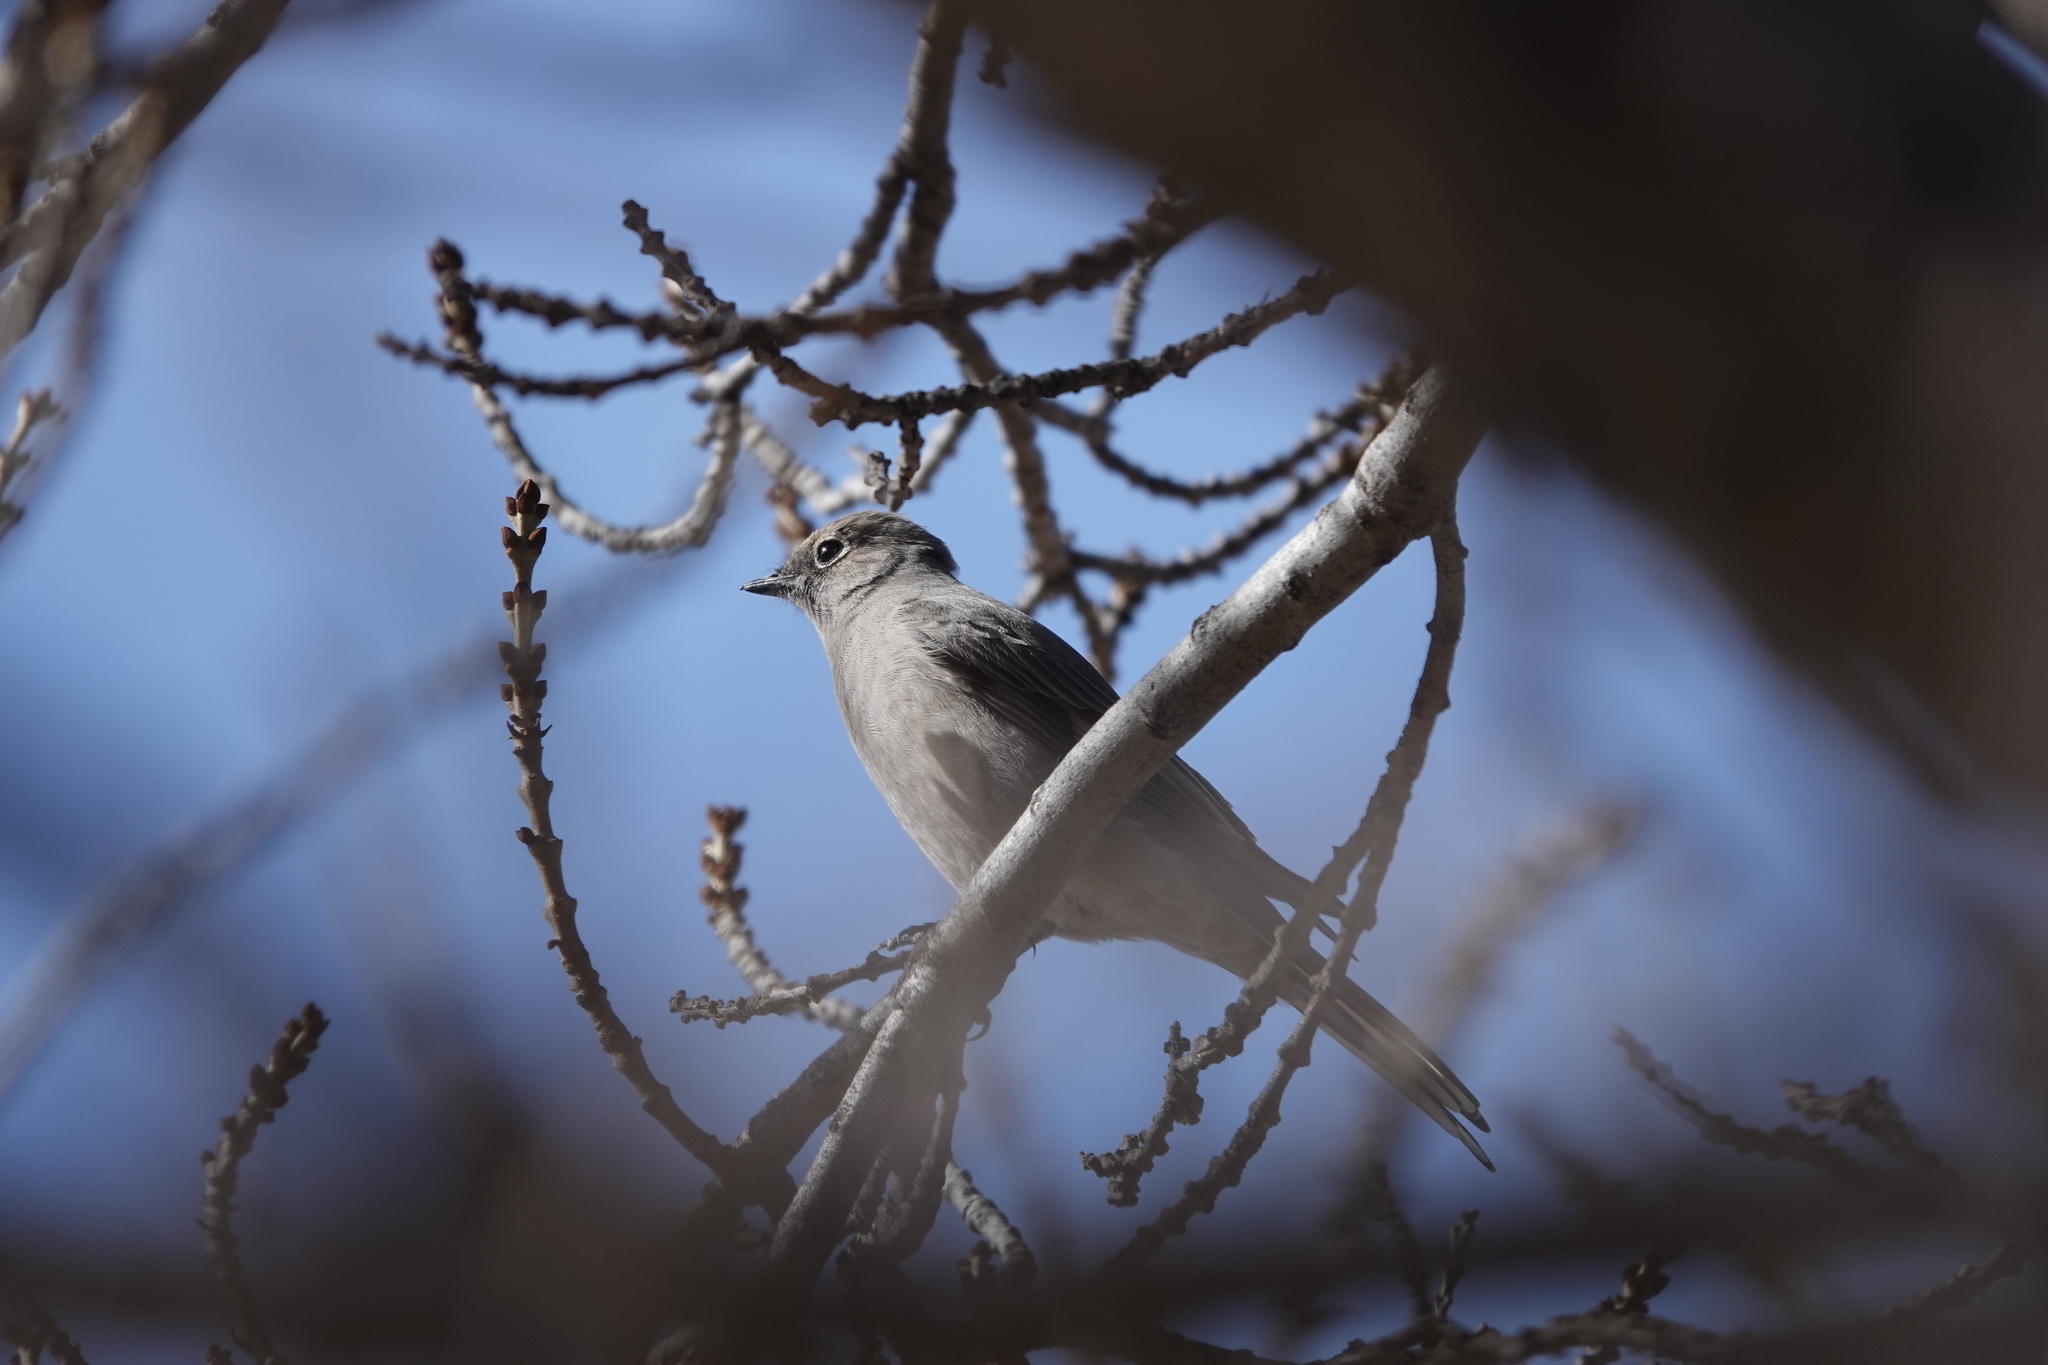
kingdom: Animalia
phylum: Chordata
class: Aves
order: Passeriformes
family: Turdidae
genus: Myadestes
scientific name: Myadestes townsendi
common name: Townsend's solitaire
